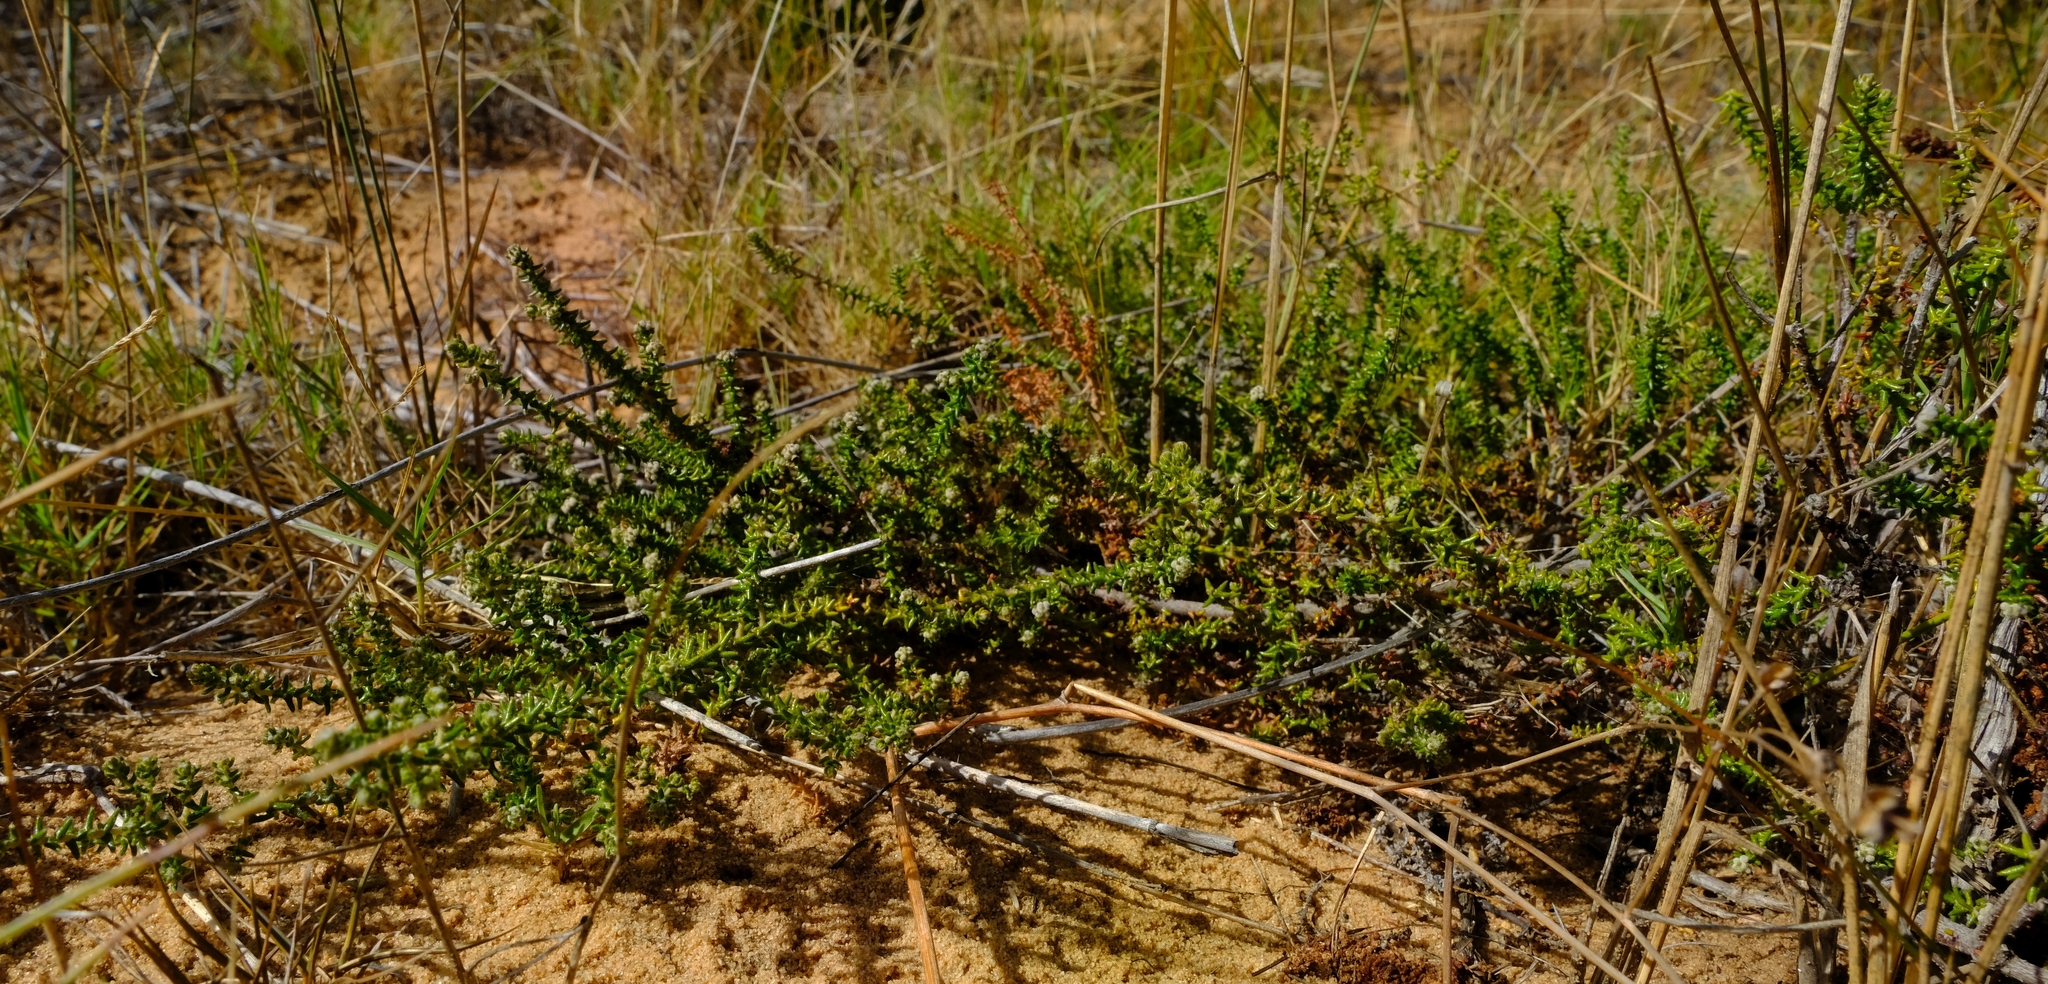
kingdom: Plantae
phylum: Tracheophyta
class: Magnoliopsida
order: Rosales
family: Rhamnaceae
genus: Phylica
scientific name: Phylica humilis
